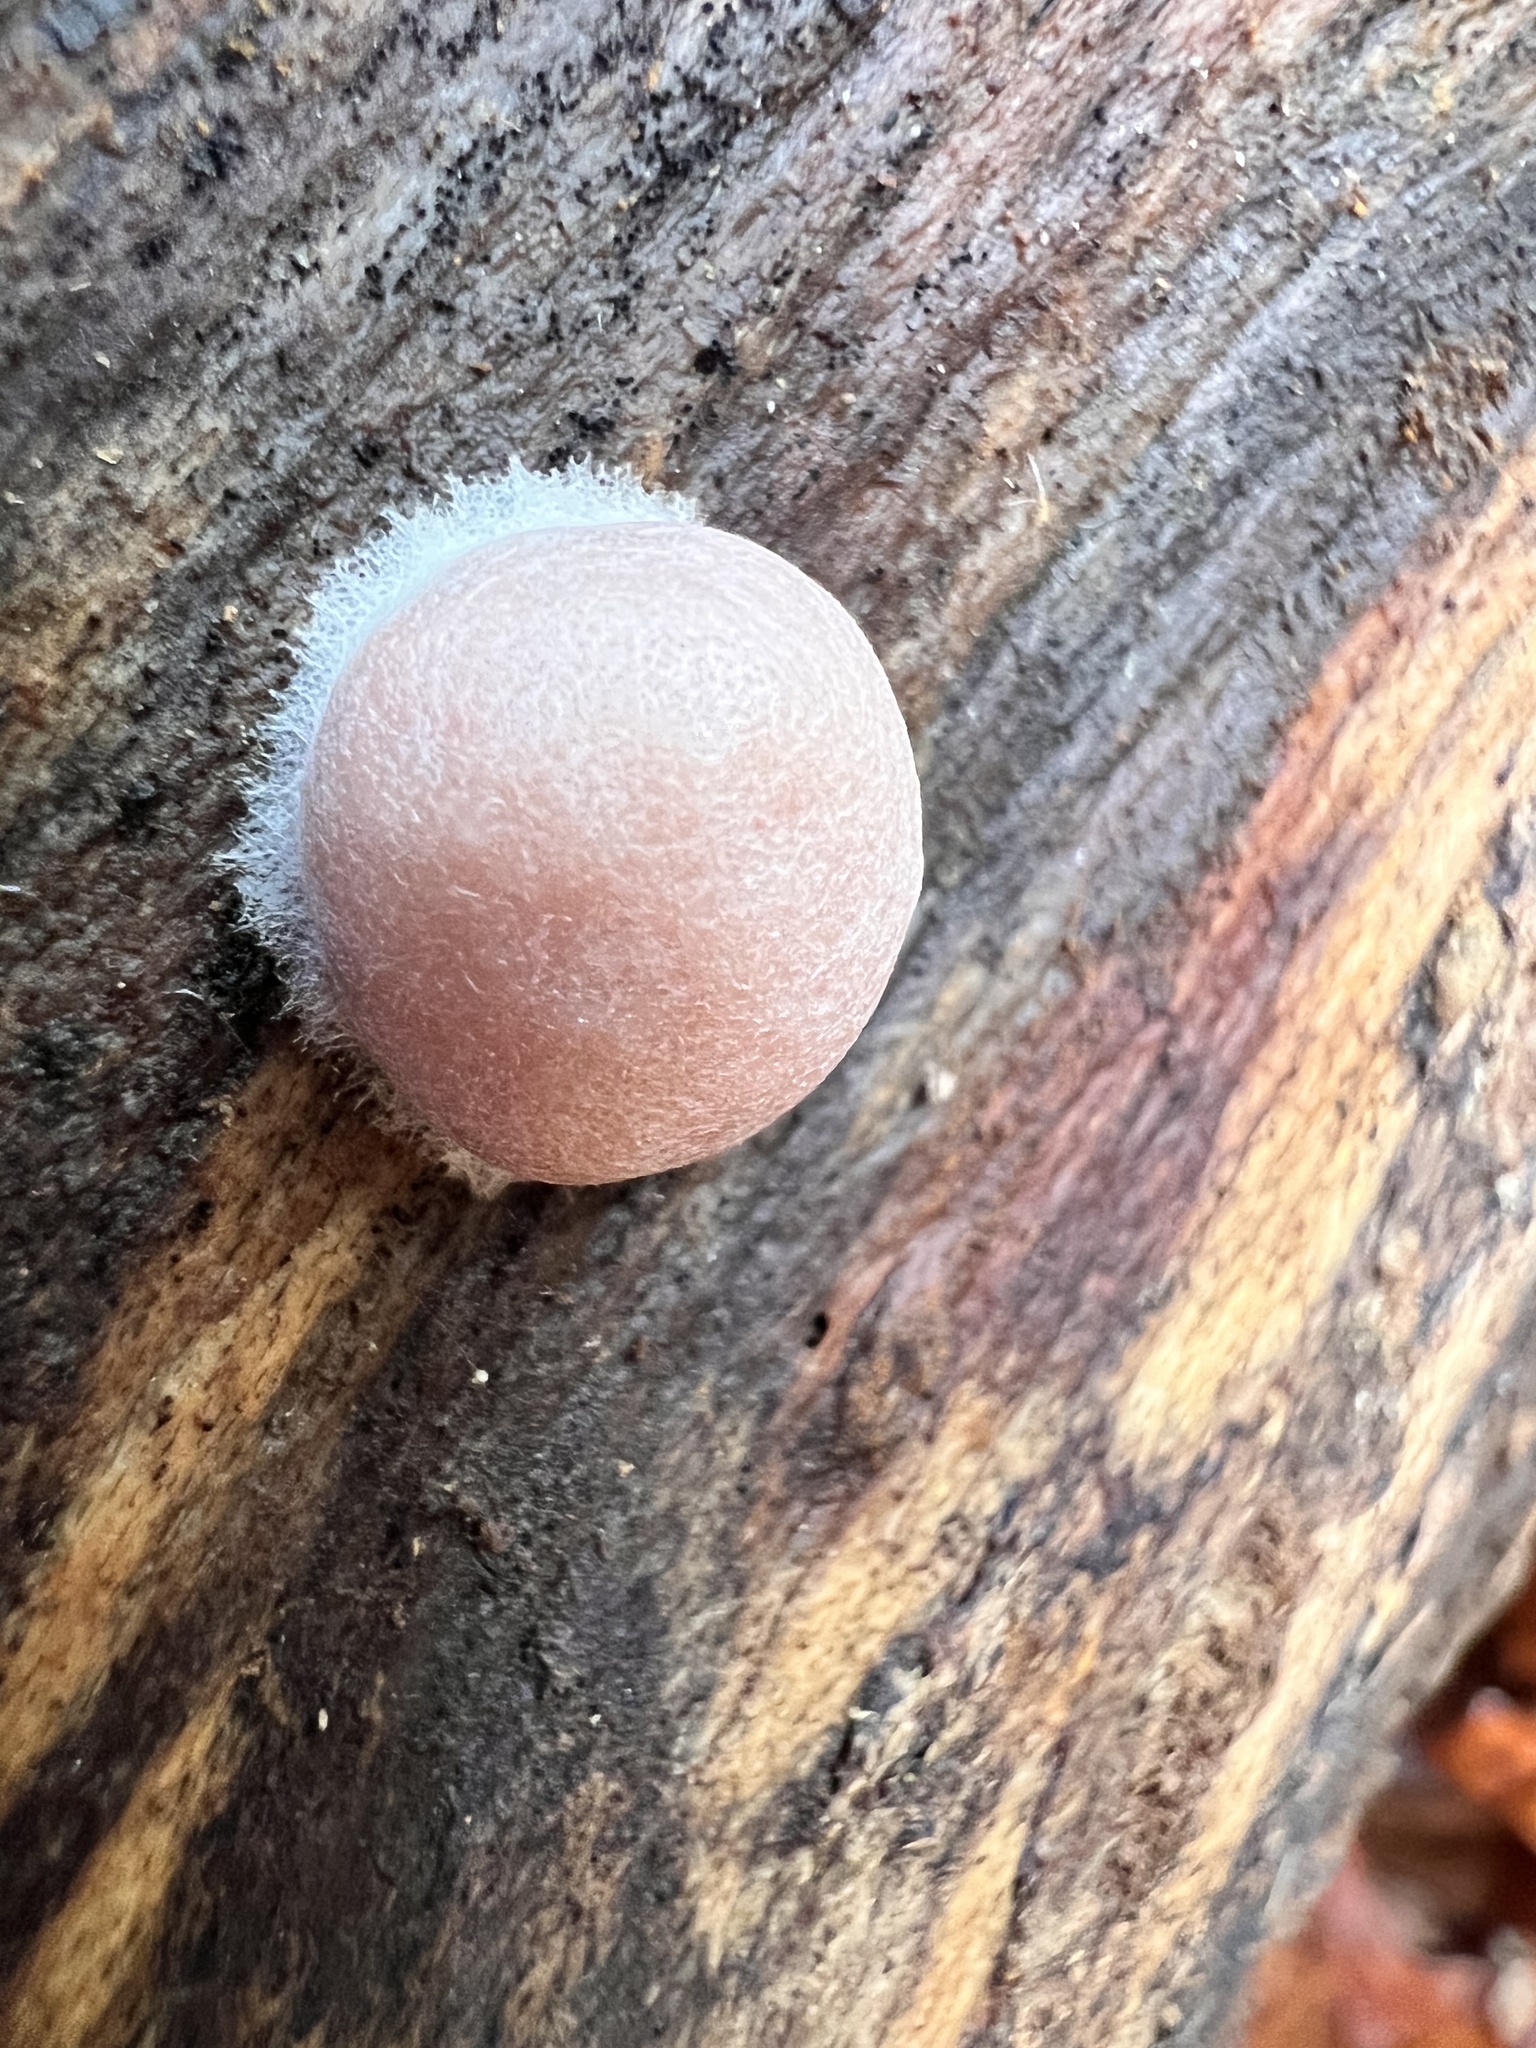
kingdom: Protozoa
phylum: Mycetozoa
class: Myxomycetes
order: Cribrariales
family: Tubiferaceae
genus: Reticularia
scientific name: Reticularia splendens
